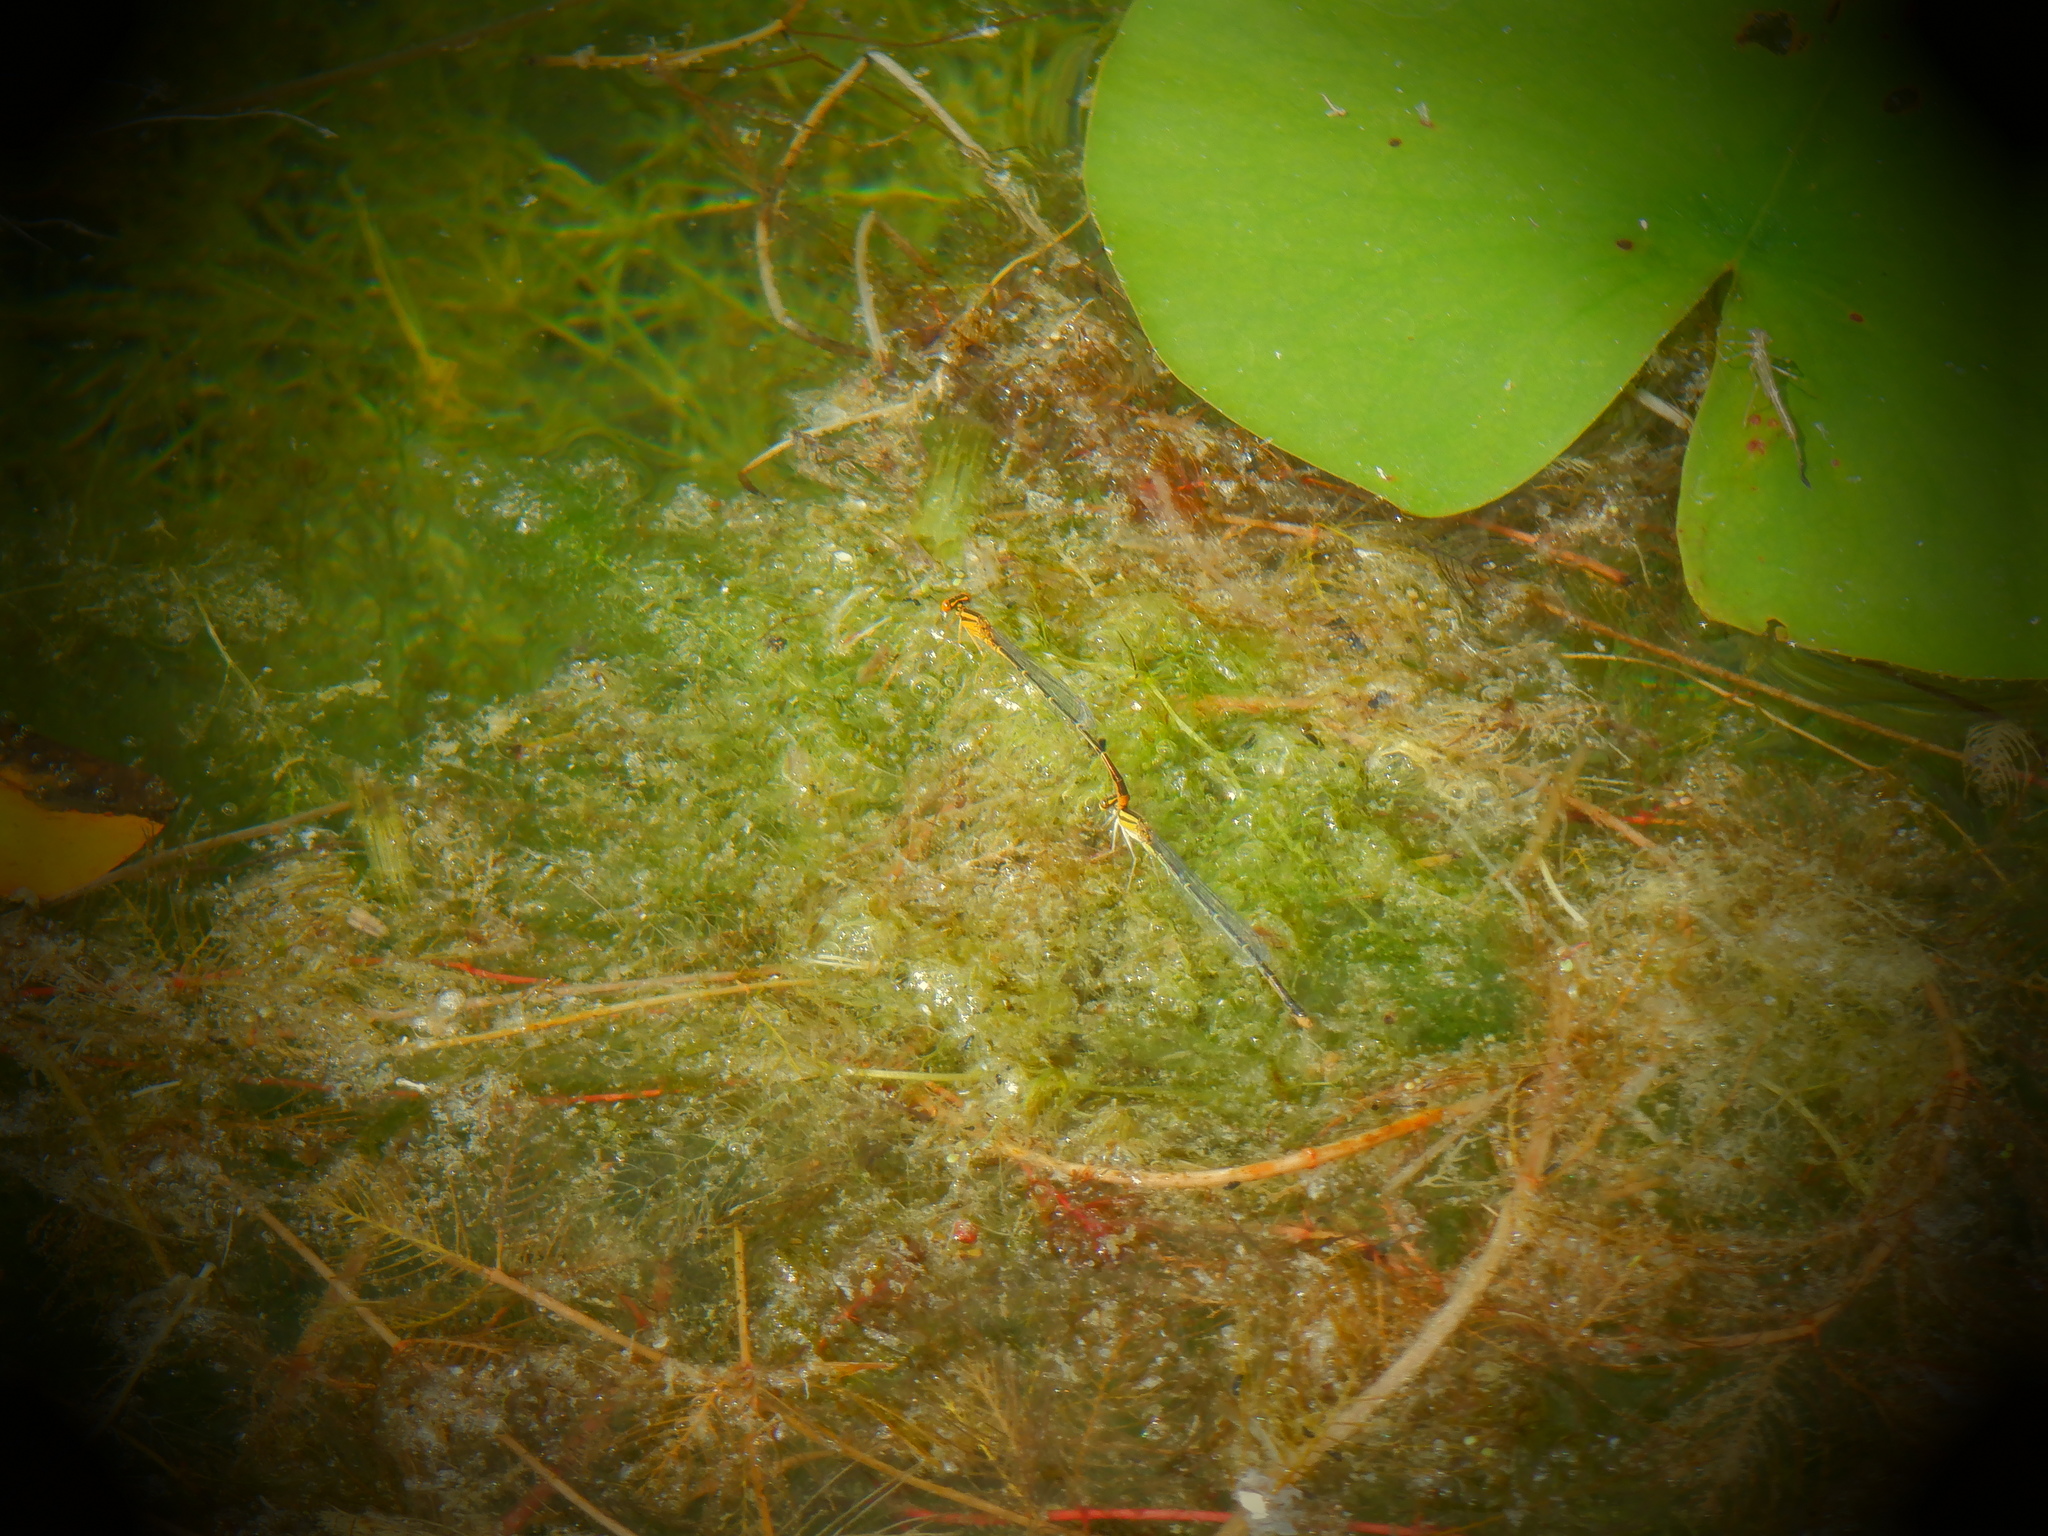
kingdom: Animalia
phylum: Arthropoda
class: Insecta
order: Odonata
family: Coenagrionidae
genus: Enallagma
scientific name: Enallagma signatum
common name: Orange bluet
